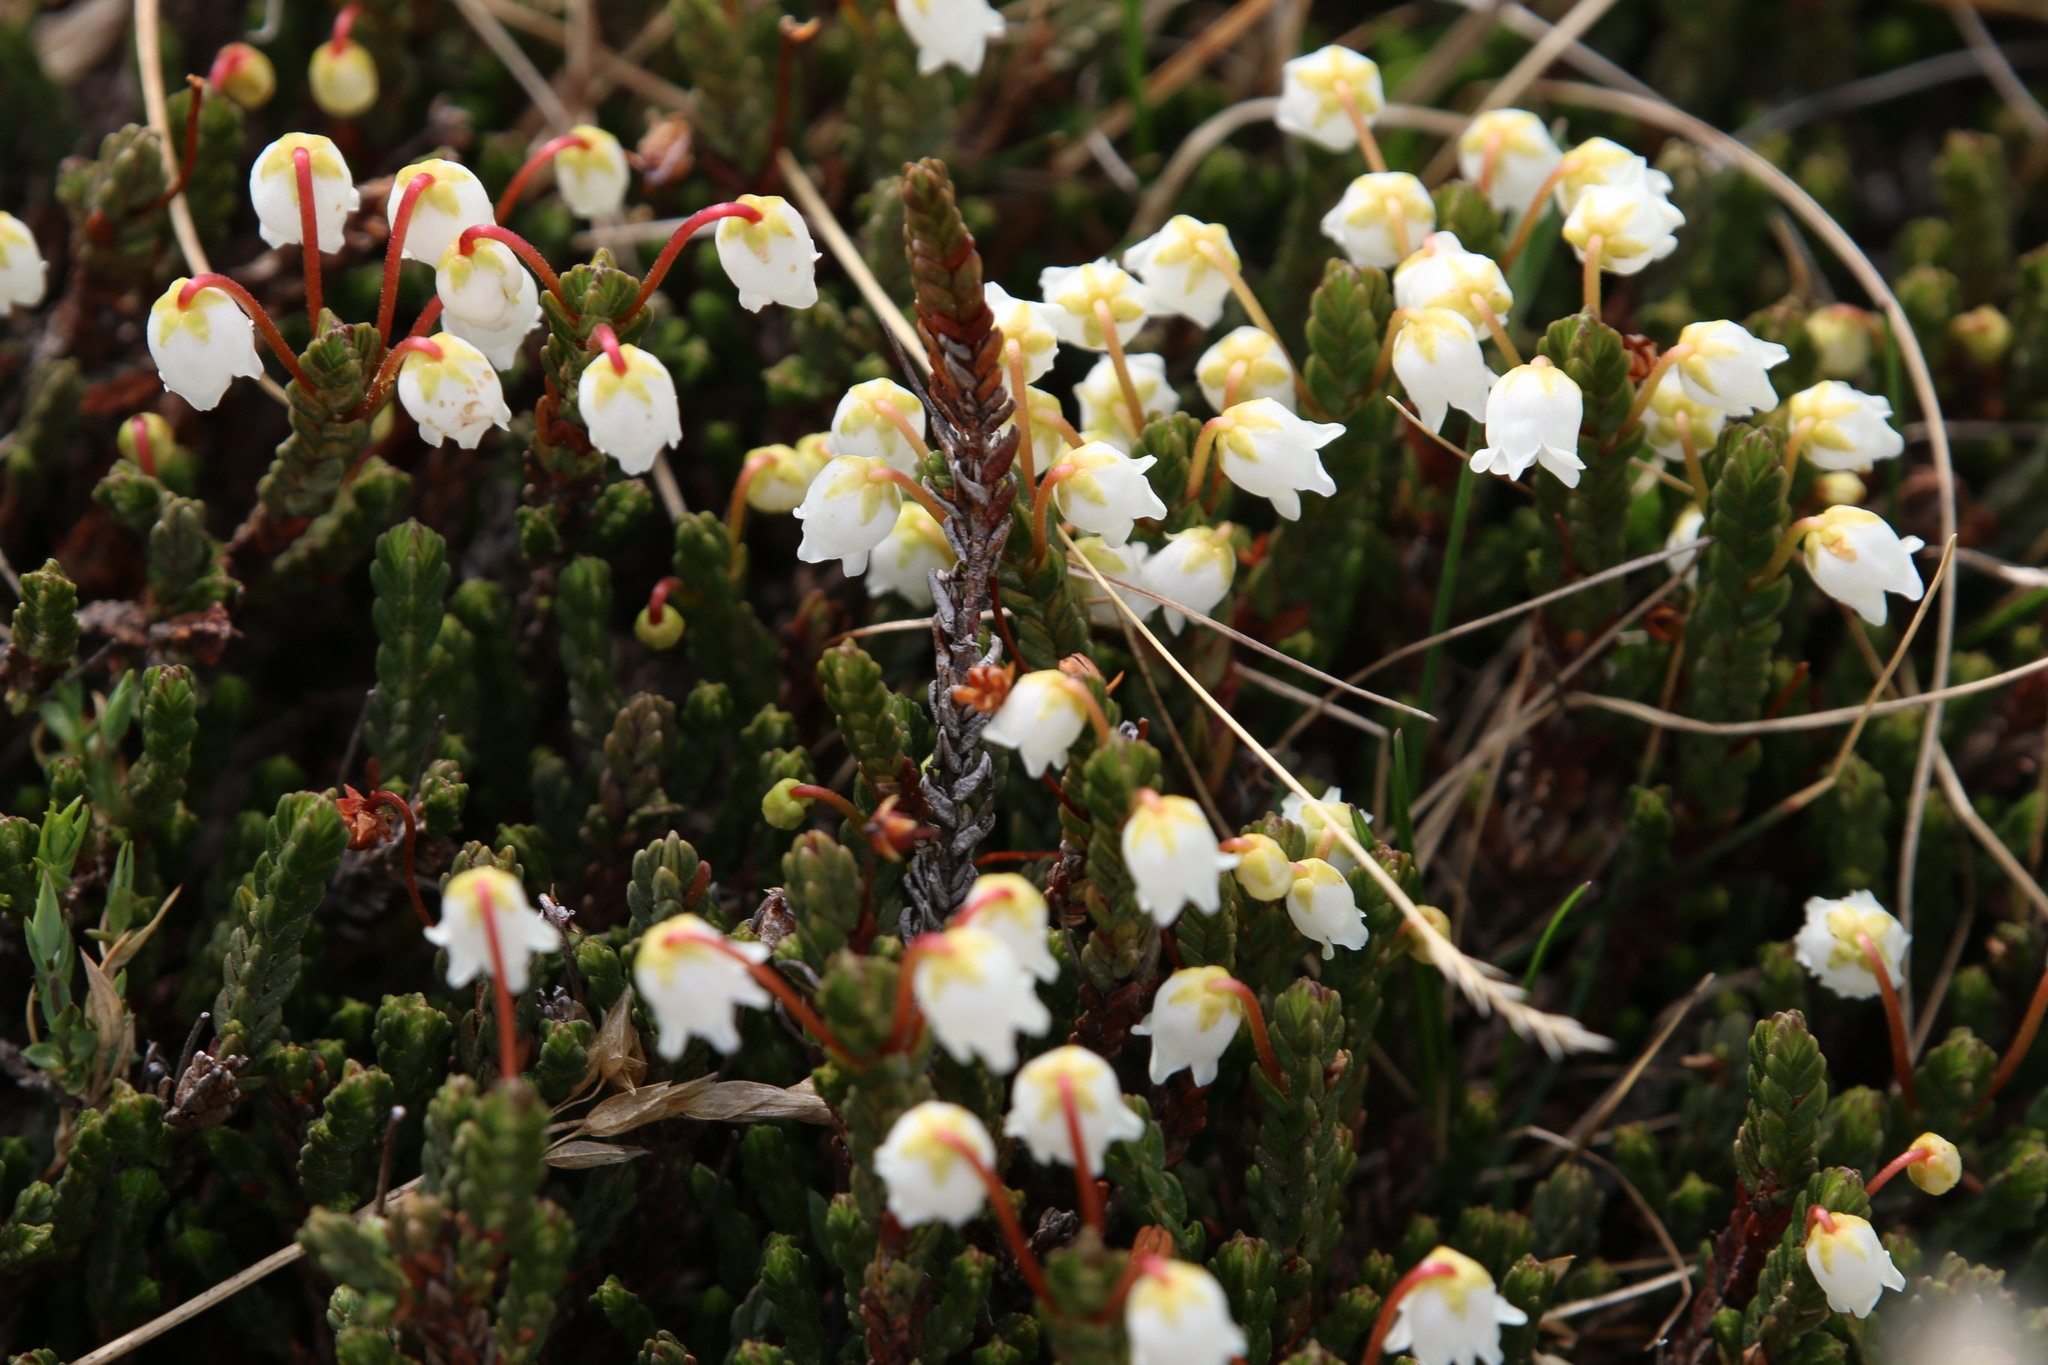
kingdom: Plantae
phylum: Tracheophyta
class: Magnoliopsida
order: Ericales
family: Ericaceae
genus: Cassiope
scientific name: Cassiope tetragona
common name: Arctic bell heather
